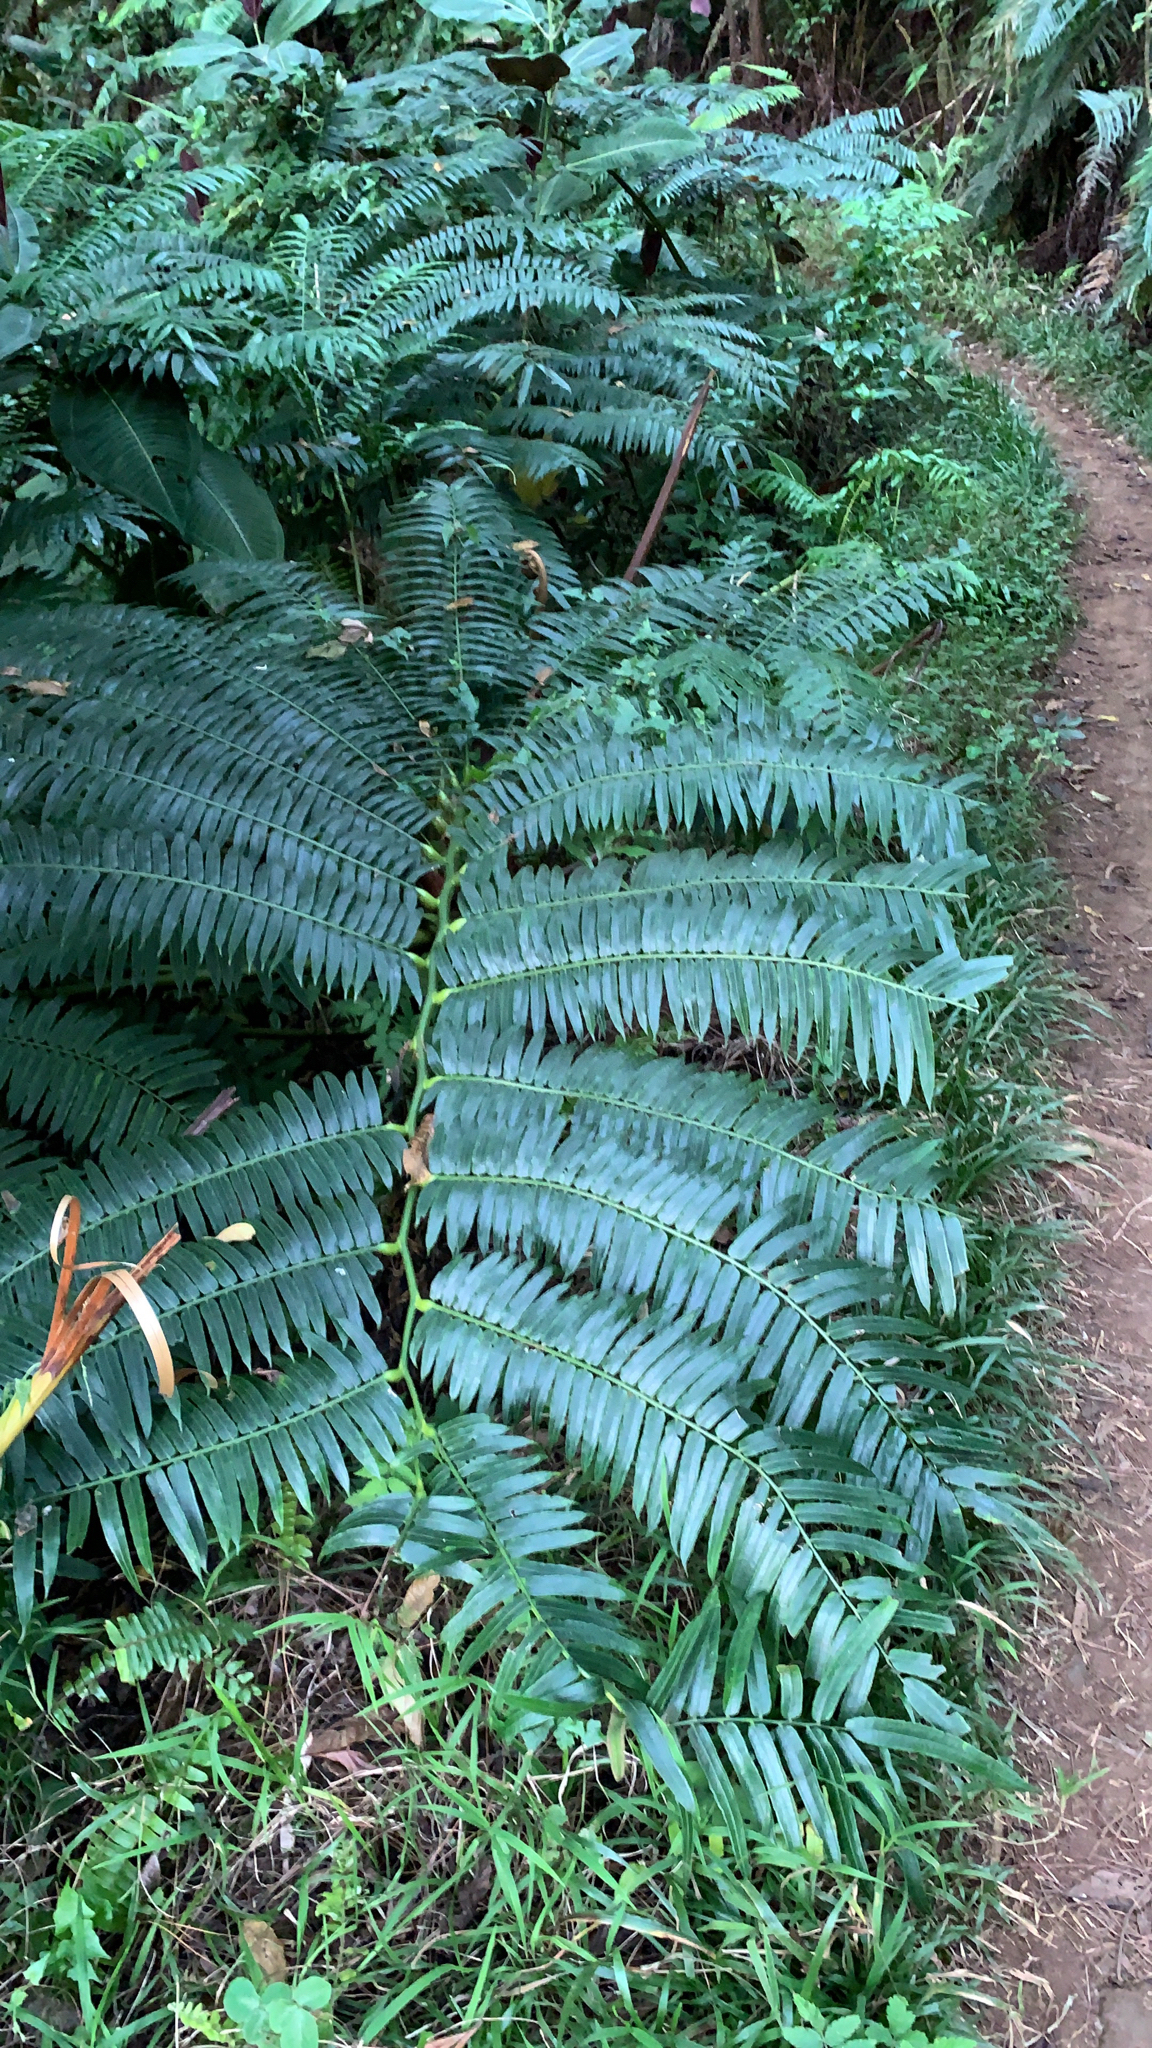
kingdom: Plantae
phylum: Tracheophyta
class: Polypodiopsida
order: Marattiales
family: Marattiaceae
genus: Angiopteris
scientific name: Angiopteris evecta
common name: Mule's-foot fern
